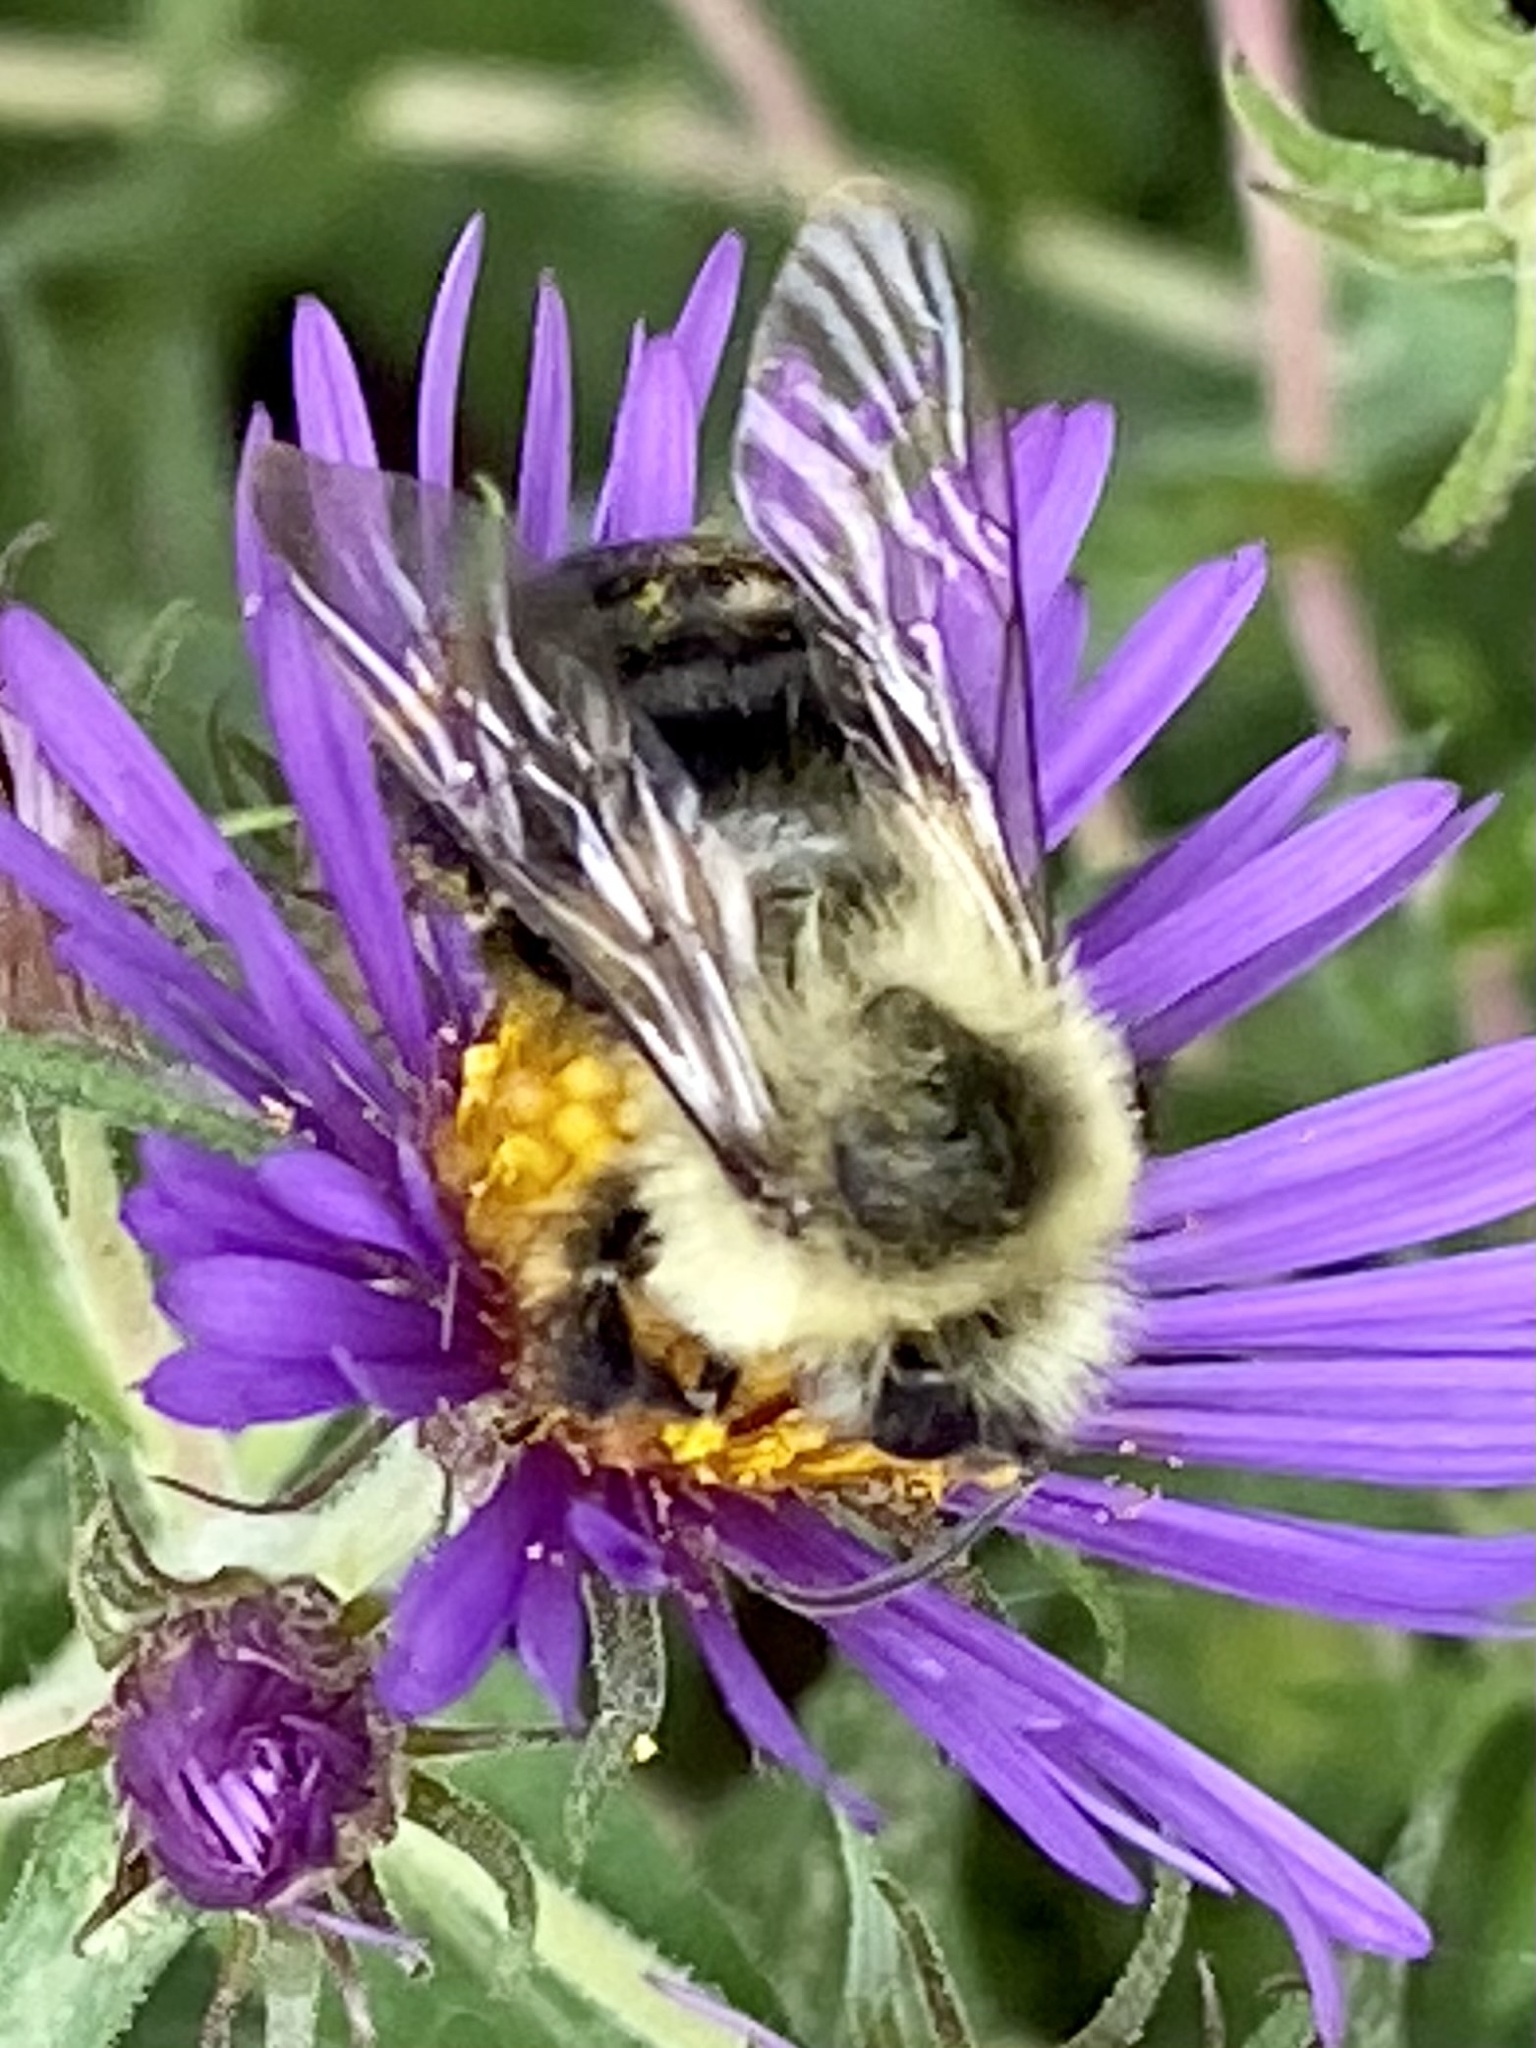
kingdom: Animalia
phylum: Arthropoda
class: Insecta
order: Hymenoptera
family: Apidae
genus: Bombus
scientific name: Bombus impatiens
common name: Common eastern bumble bee
